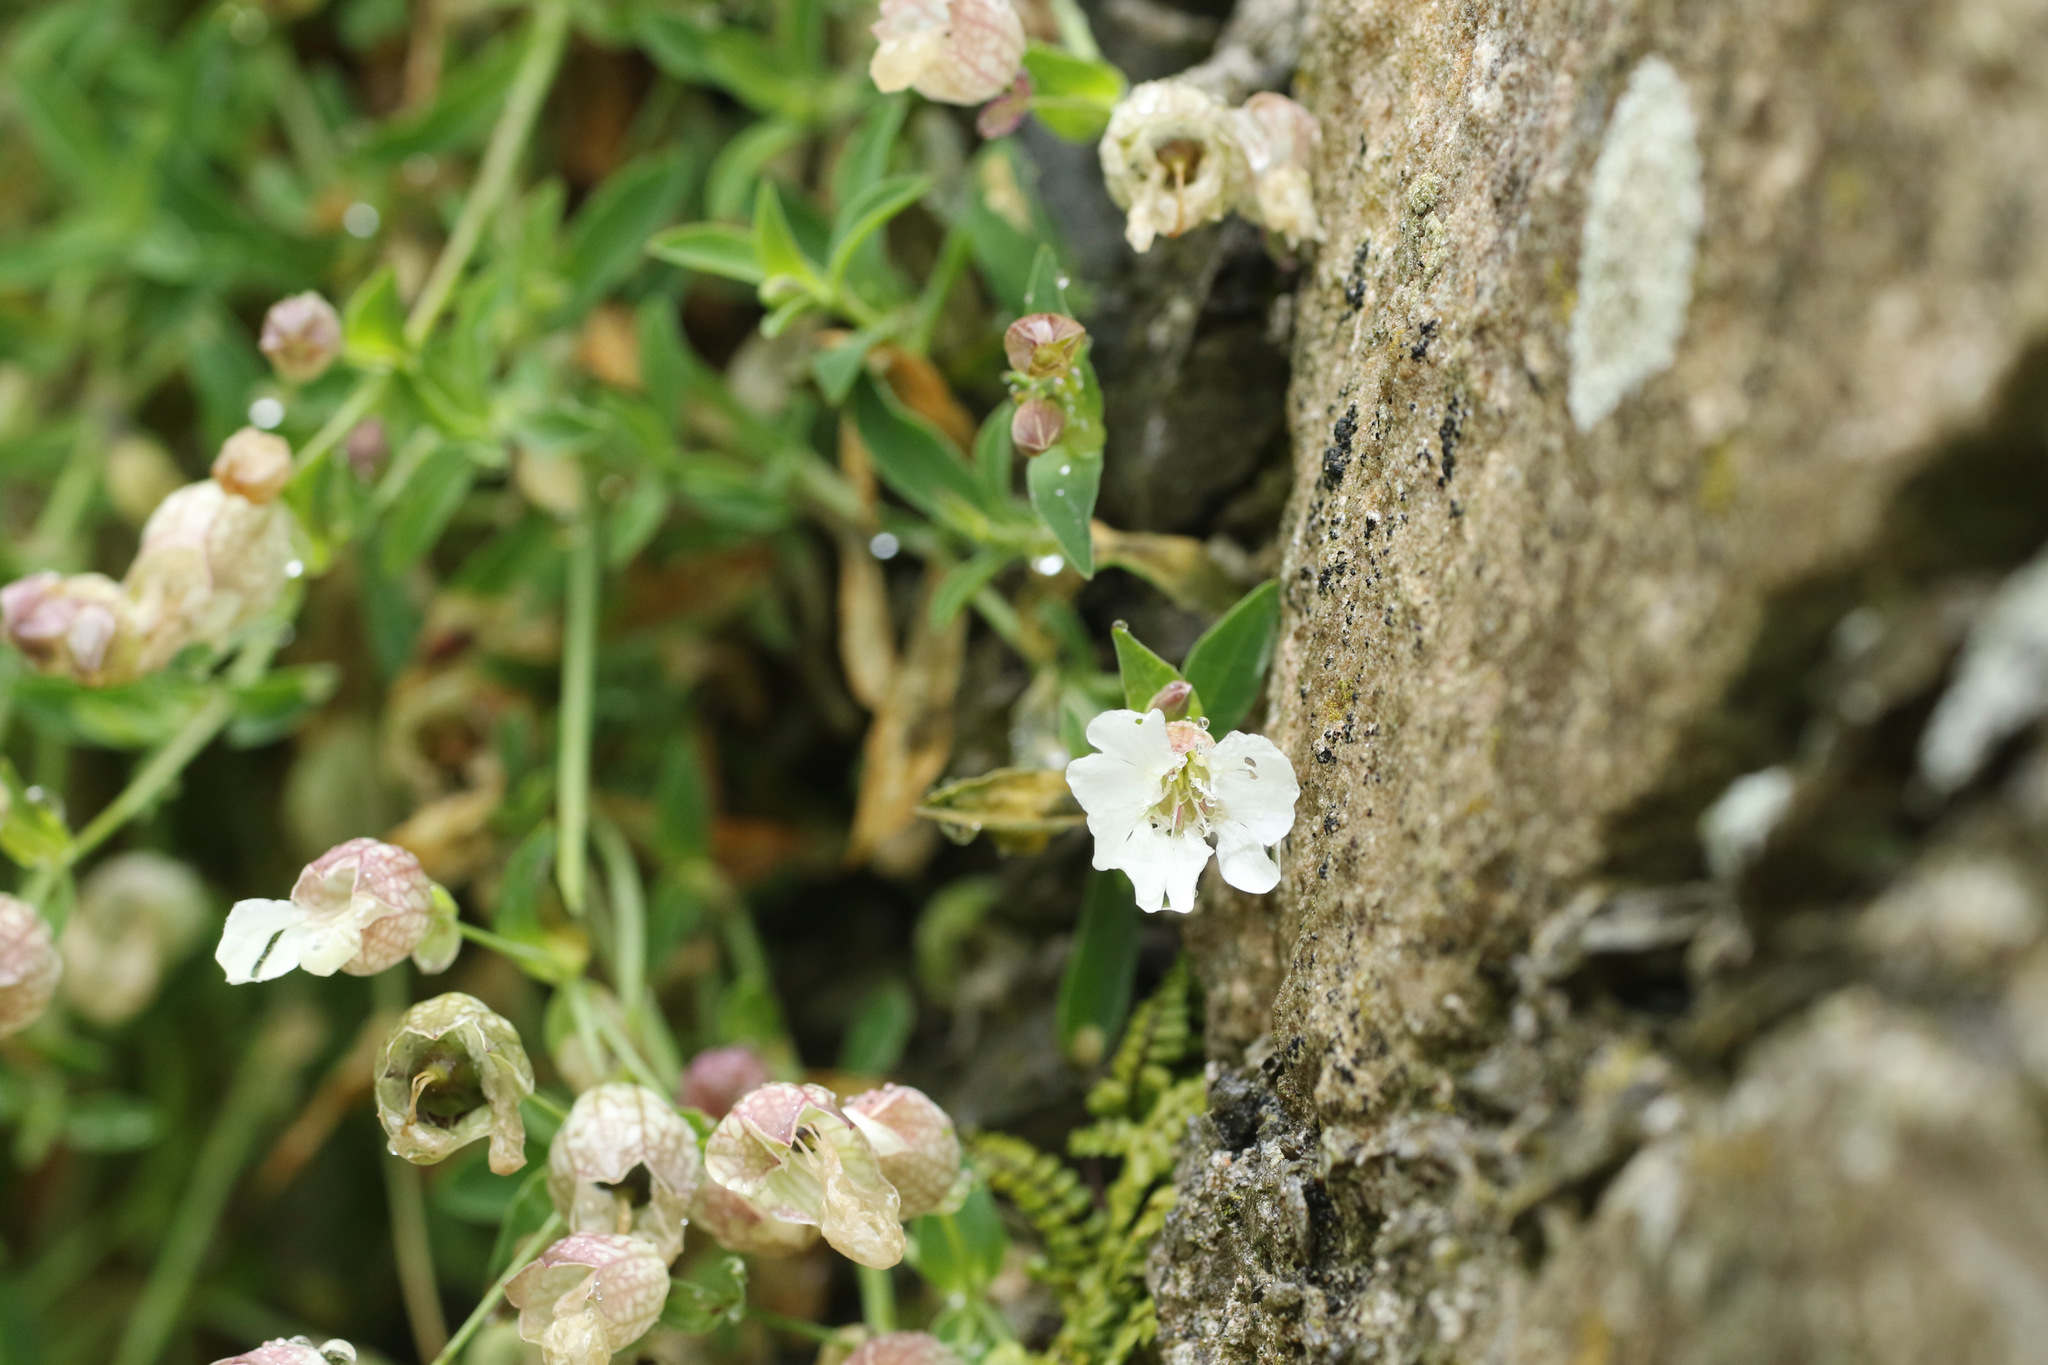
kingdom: Plantae
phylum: Tracheophyta
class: Magnoliopsida
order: Caryophyllales
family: Caryophyllaceae
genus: Silene
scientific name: Silene uniflora
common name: Sea campion
